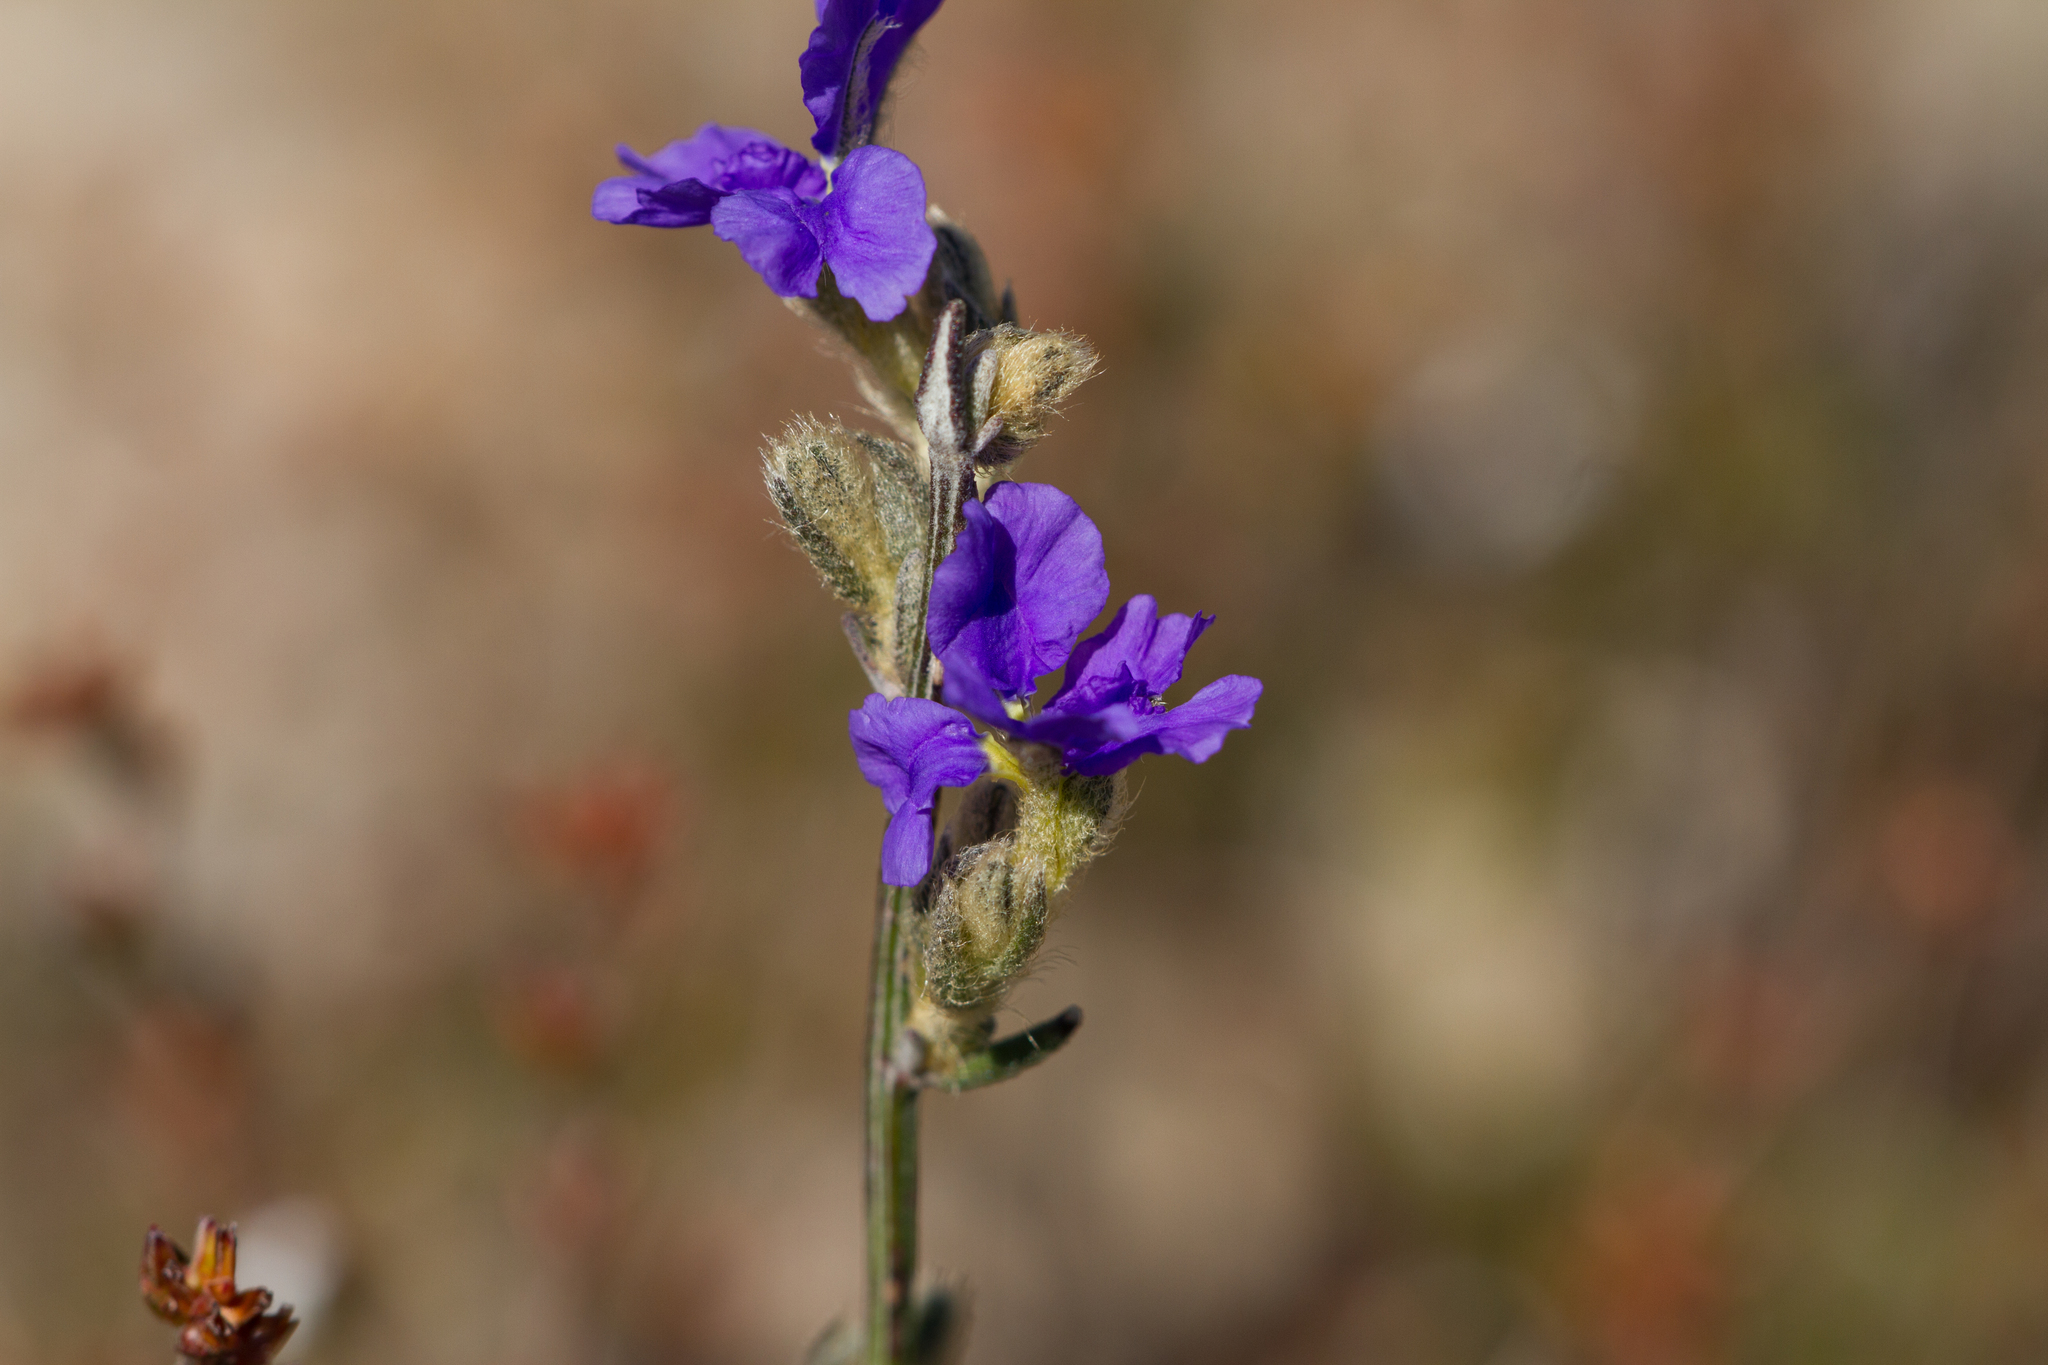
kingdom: Plantae
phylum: Tracheophyta
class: Magnoliopsida
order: Asterales
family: Goodeniaceae
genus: Dampiera
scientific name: Dampiera dysantha
